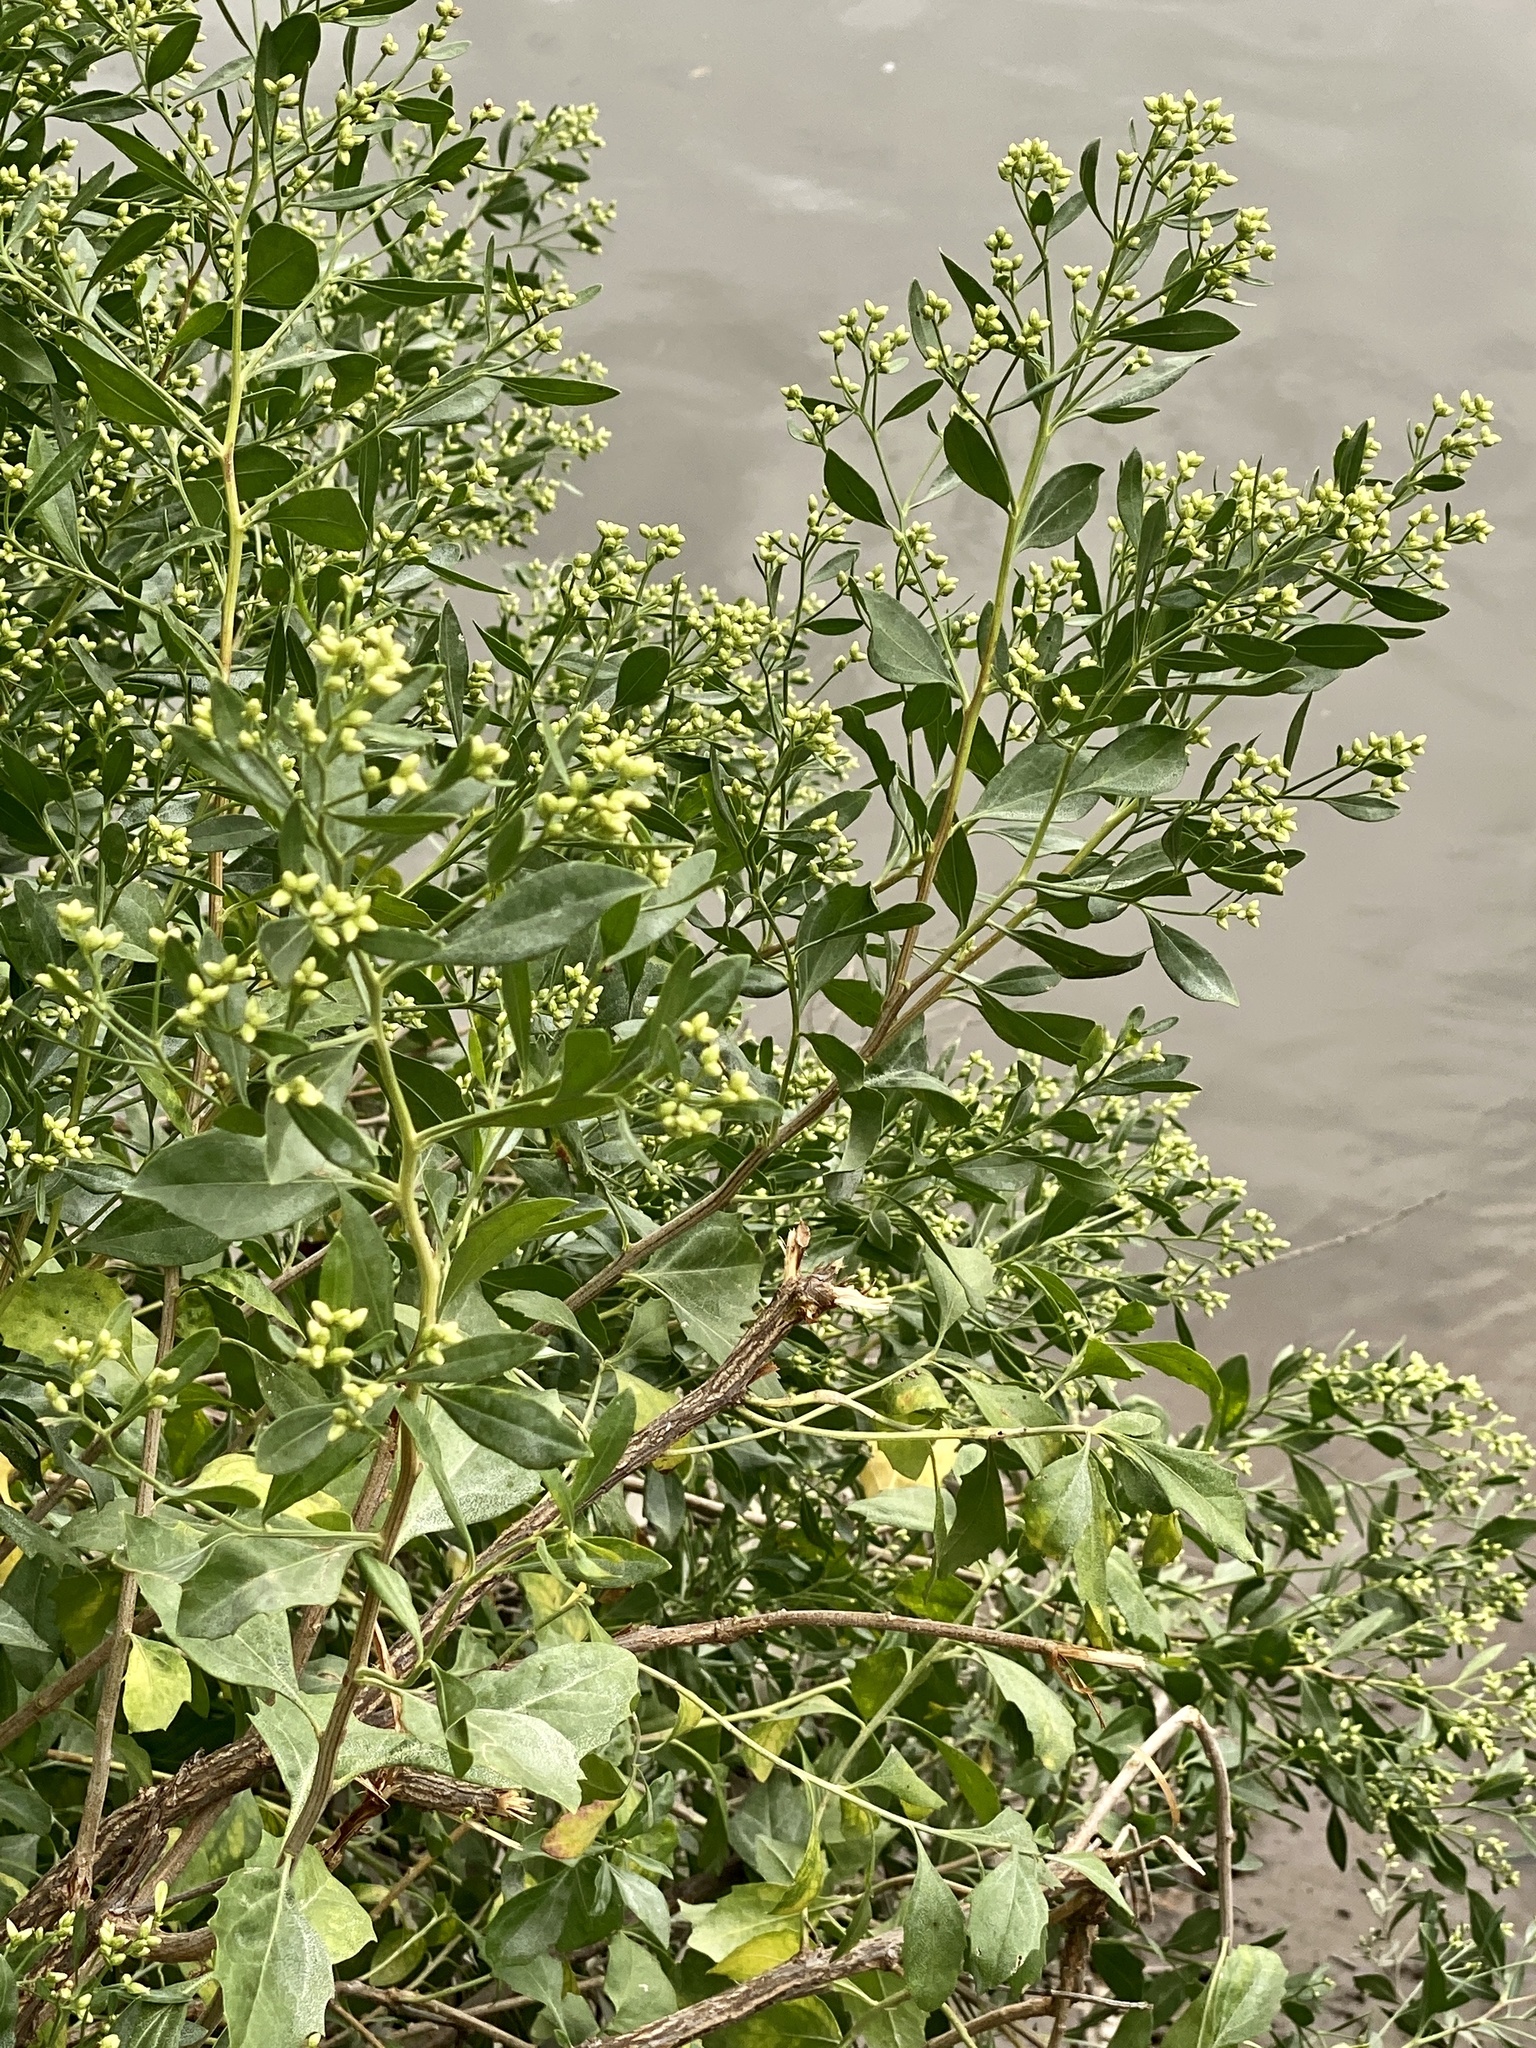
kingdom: Plantae
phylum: Tracheophyta
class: Magnoliopsida
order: Asterales
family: Asteraceae
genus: Baccharis
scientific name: Baccharis halimifolia
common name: Eastern baccharis
